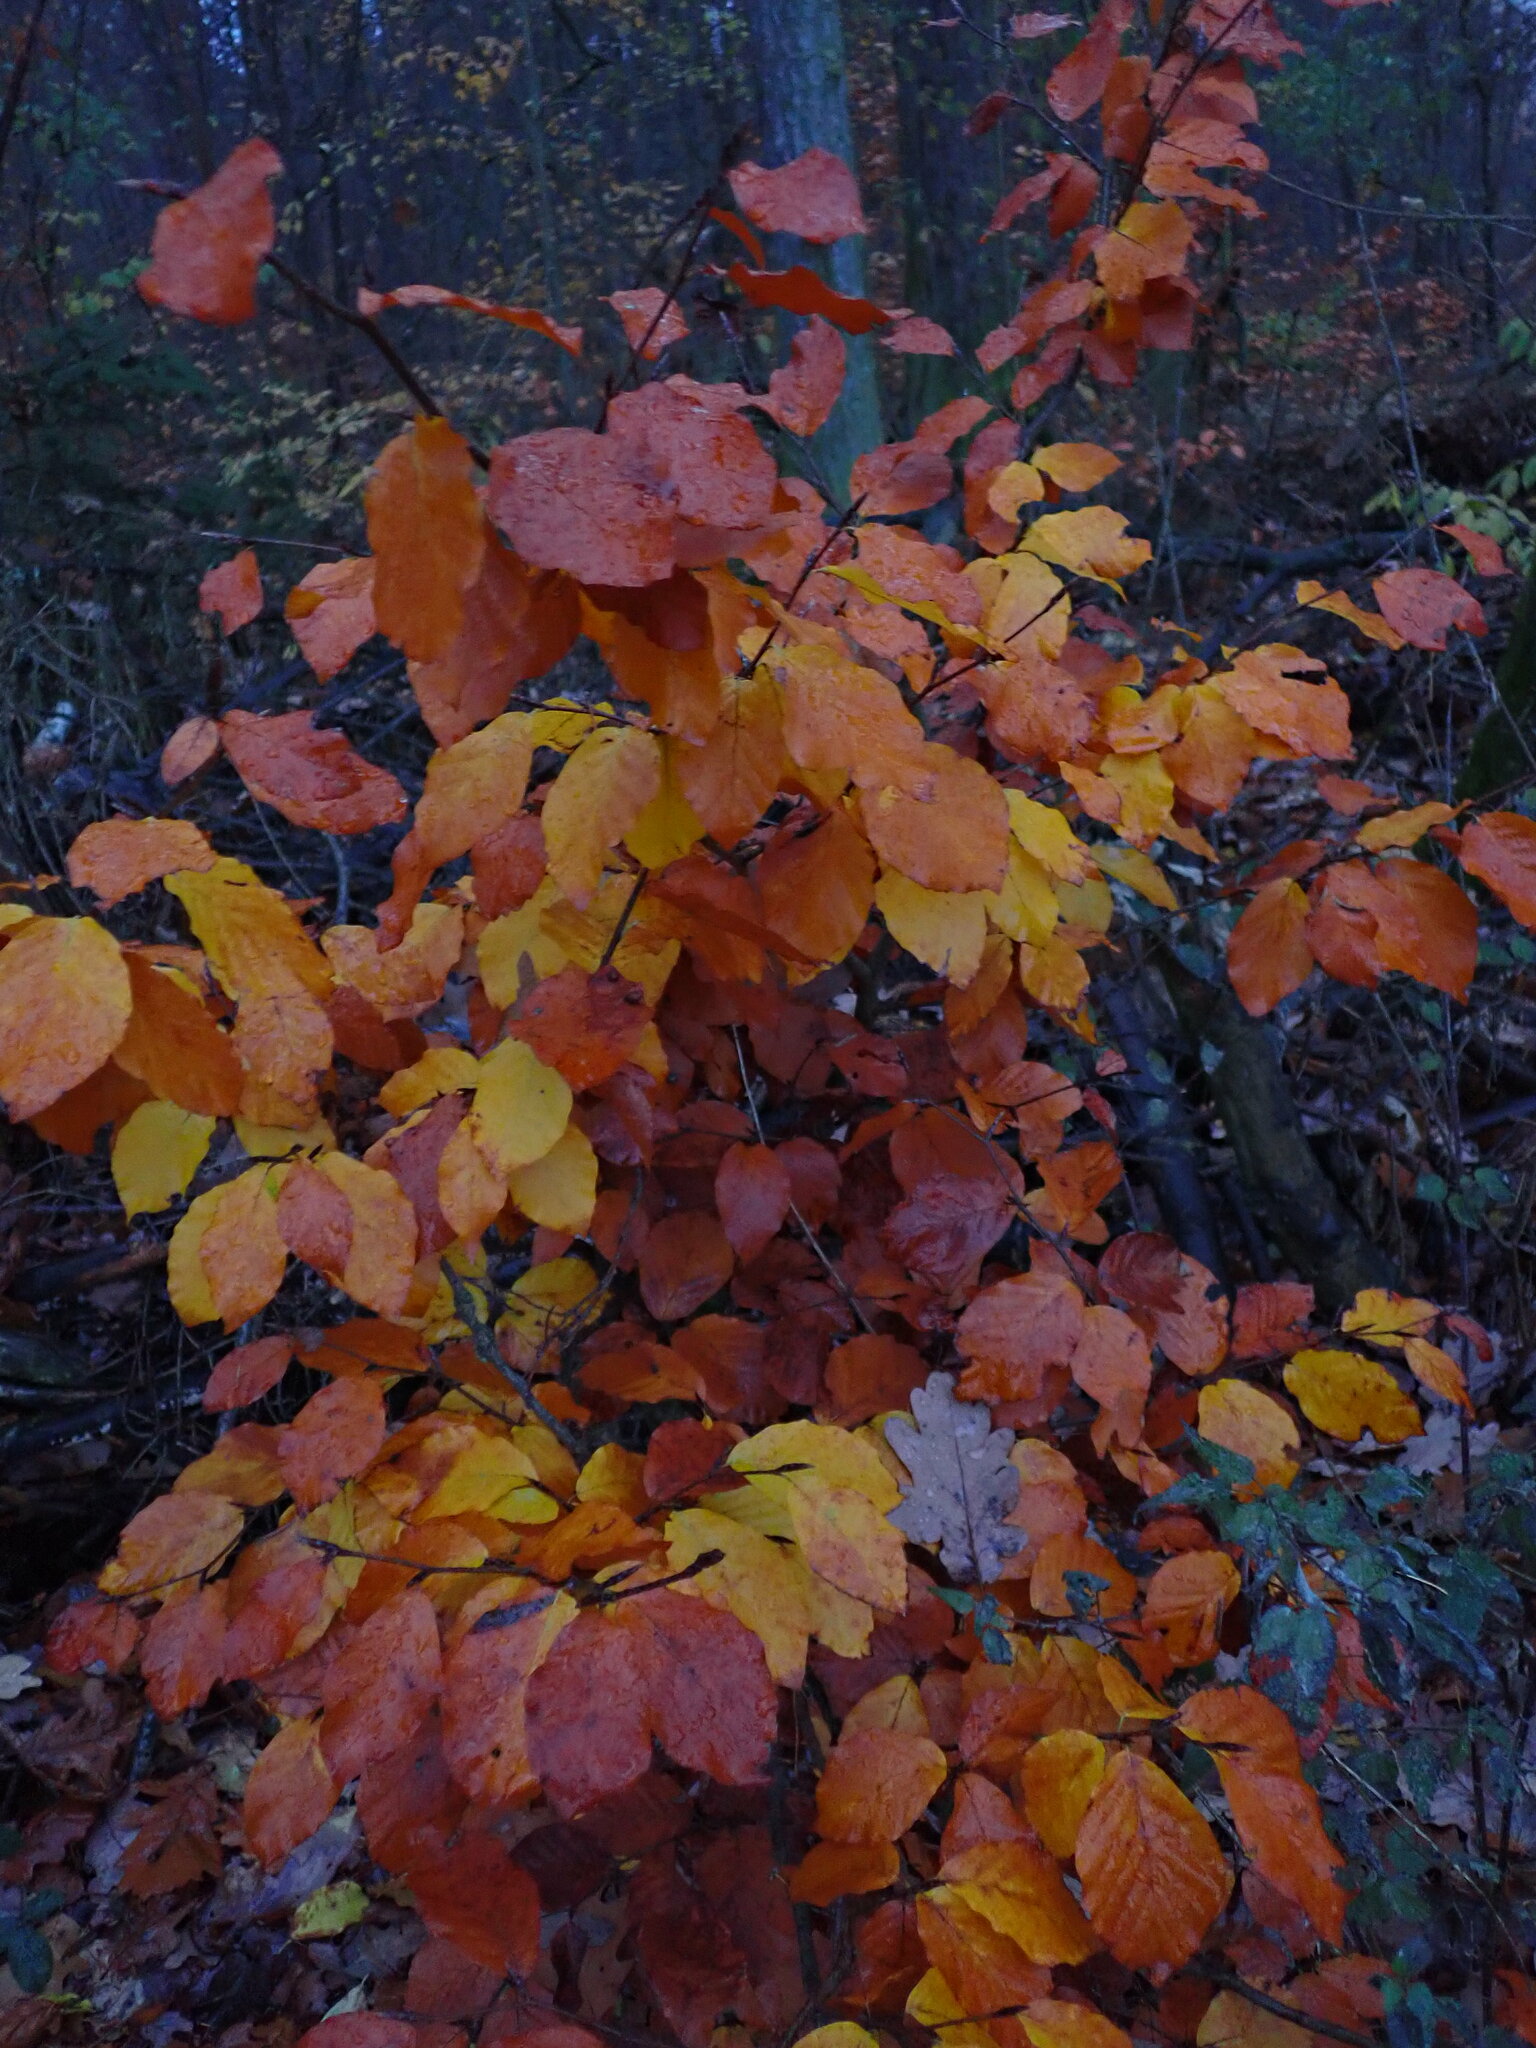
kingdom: Plantae
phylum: Tracheophyta
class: Magnoliopsida
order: Fagales
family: Fagaceae
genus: Fagus
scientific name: Fagus sylvatica
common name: Beech
